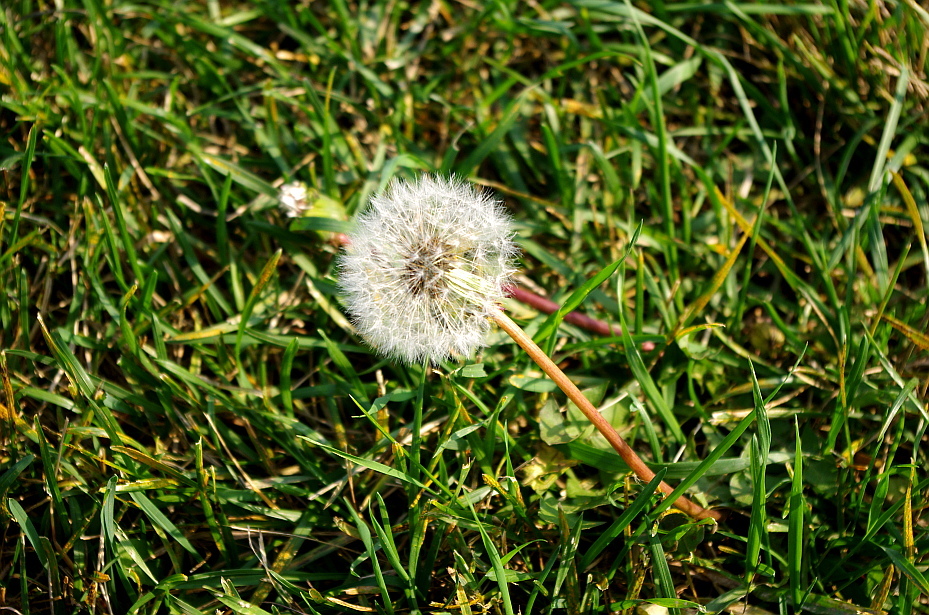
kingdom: Plantae
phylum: Tracheophyta
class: Magnoliopsida
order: Asterales
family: Asteraceae
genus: Taraxacum
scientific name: Taraxacum officinale
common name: Common dandelion
